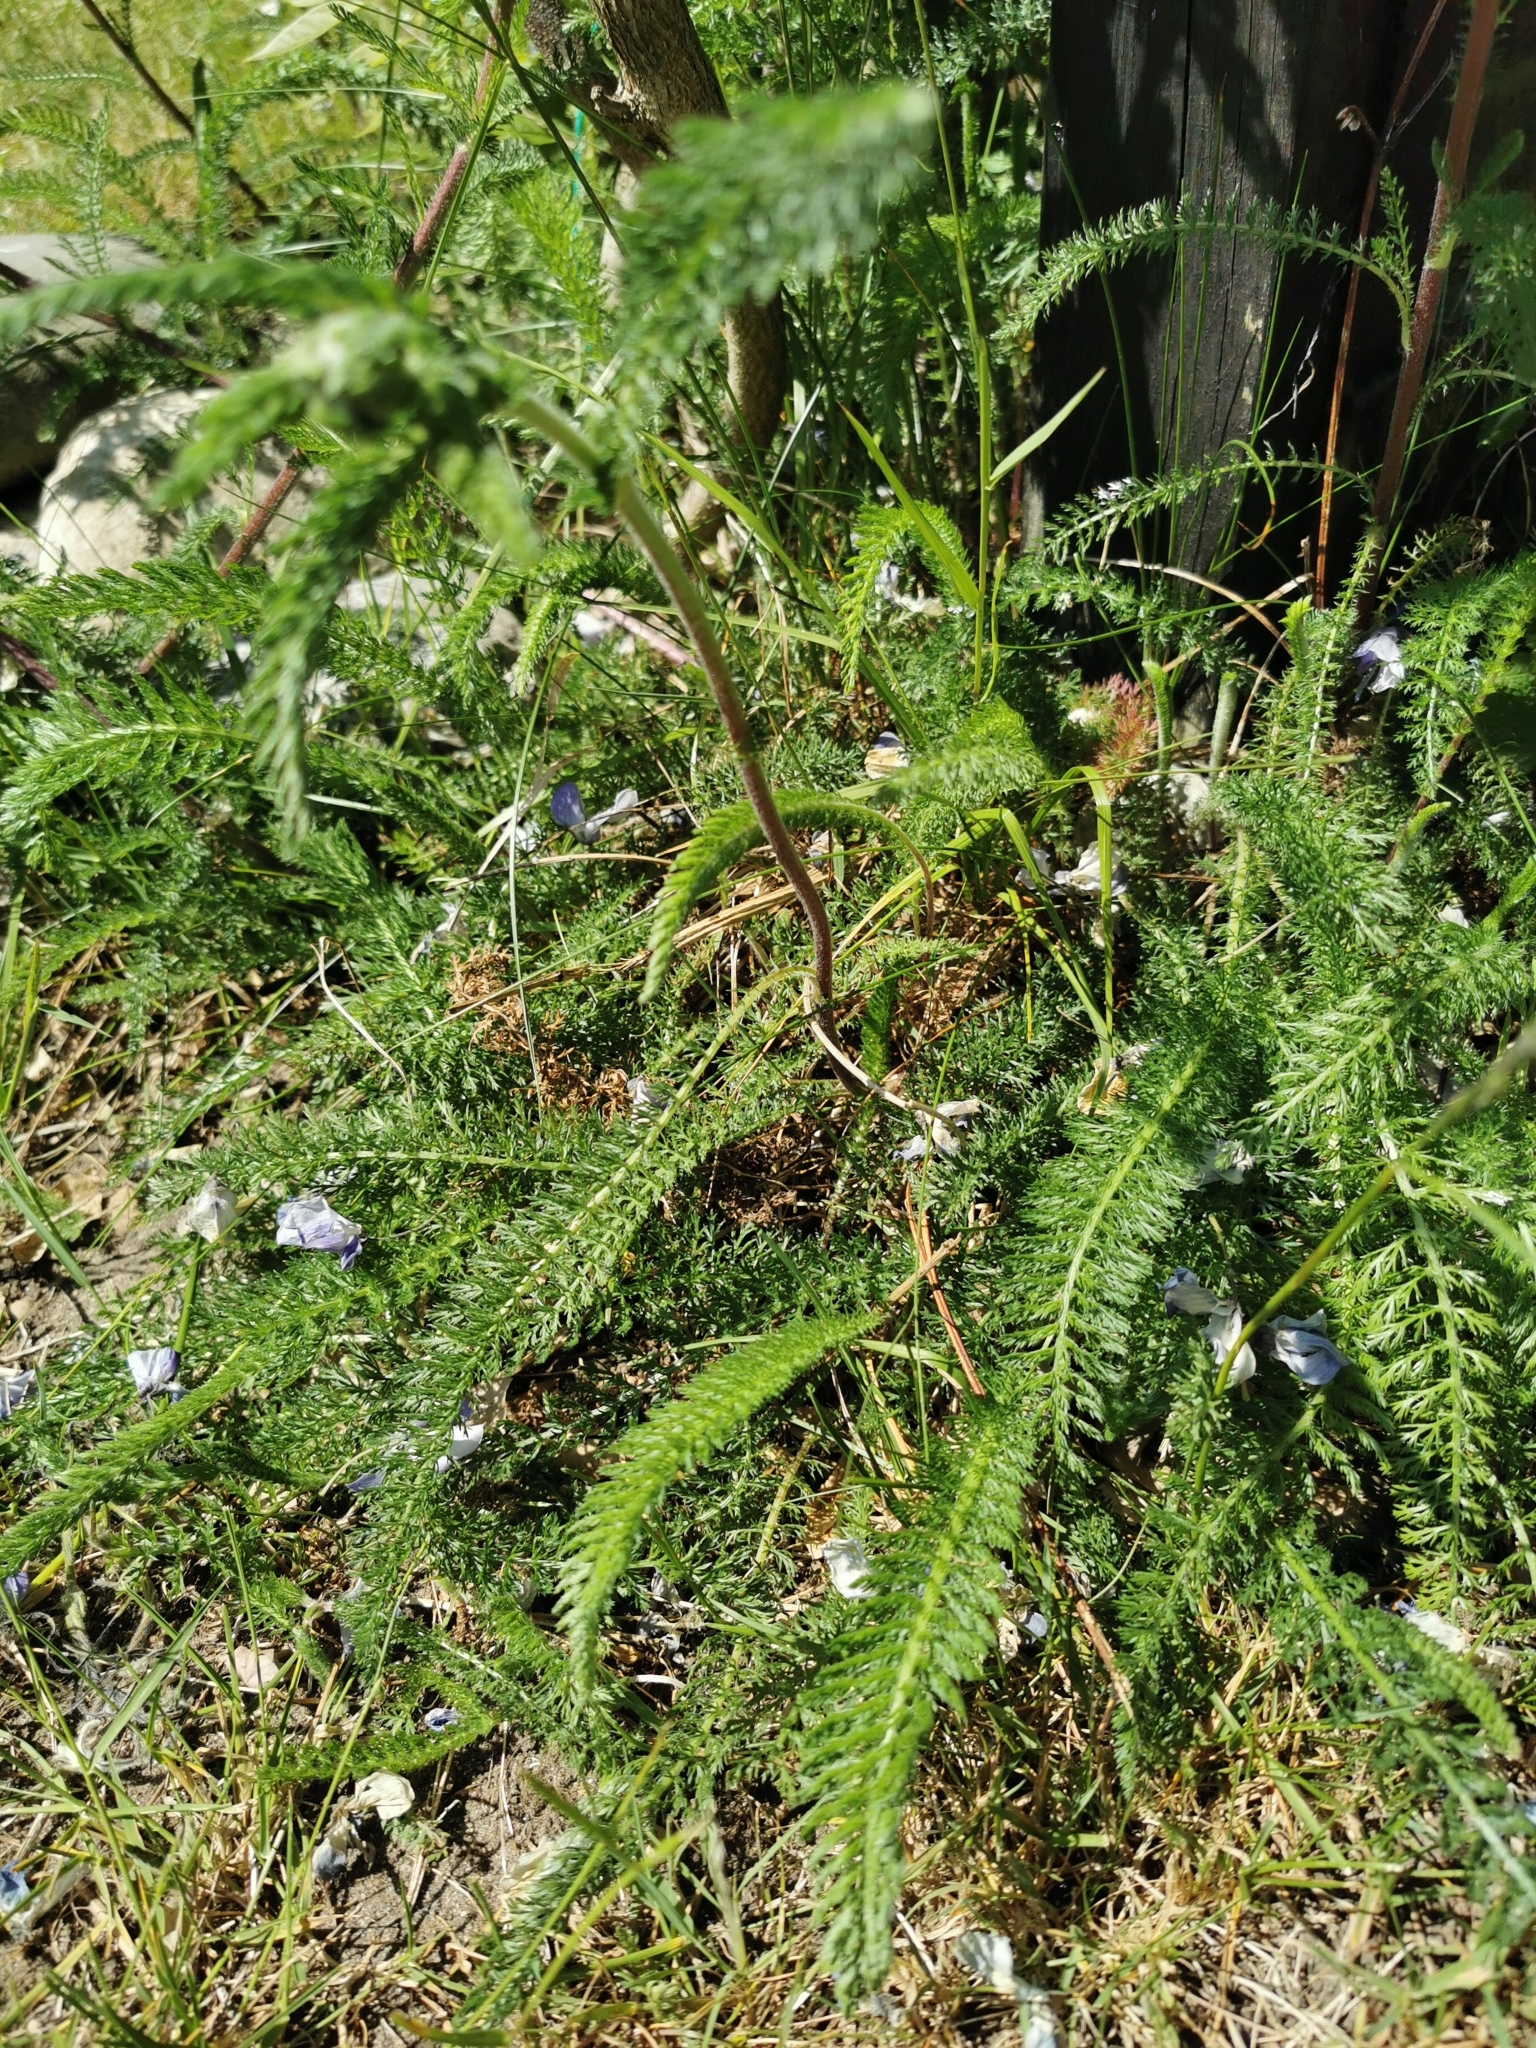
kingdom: Plantae
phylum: Tracheophyta
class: Magnoliopsida
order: Asterales
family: Asteraceae
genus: Achillea
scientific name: Achillea millefolium
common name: Yarrow
